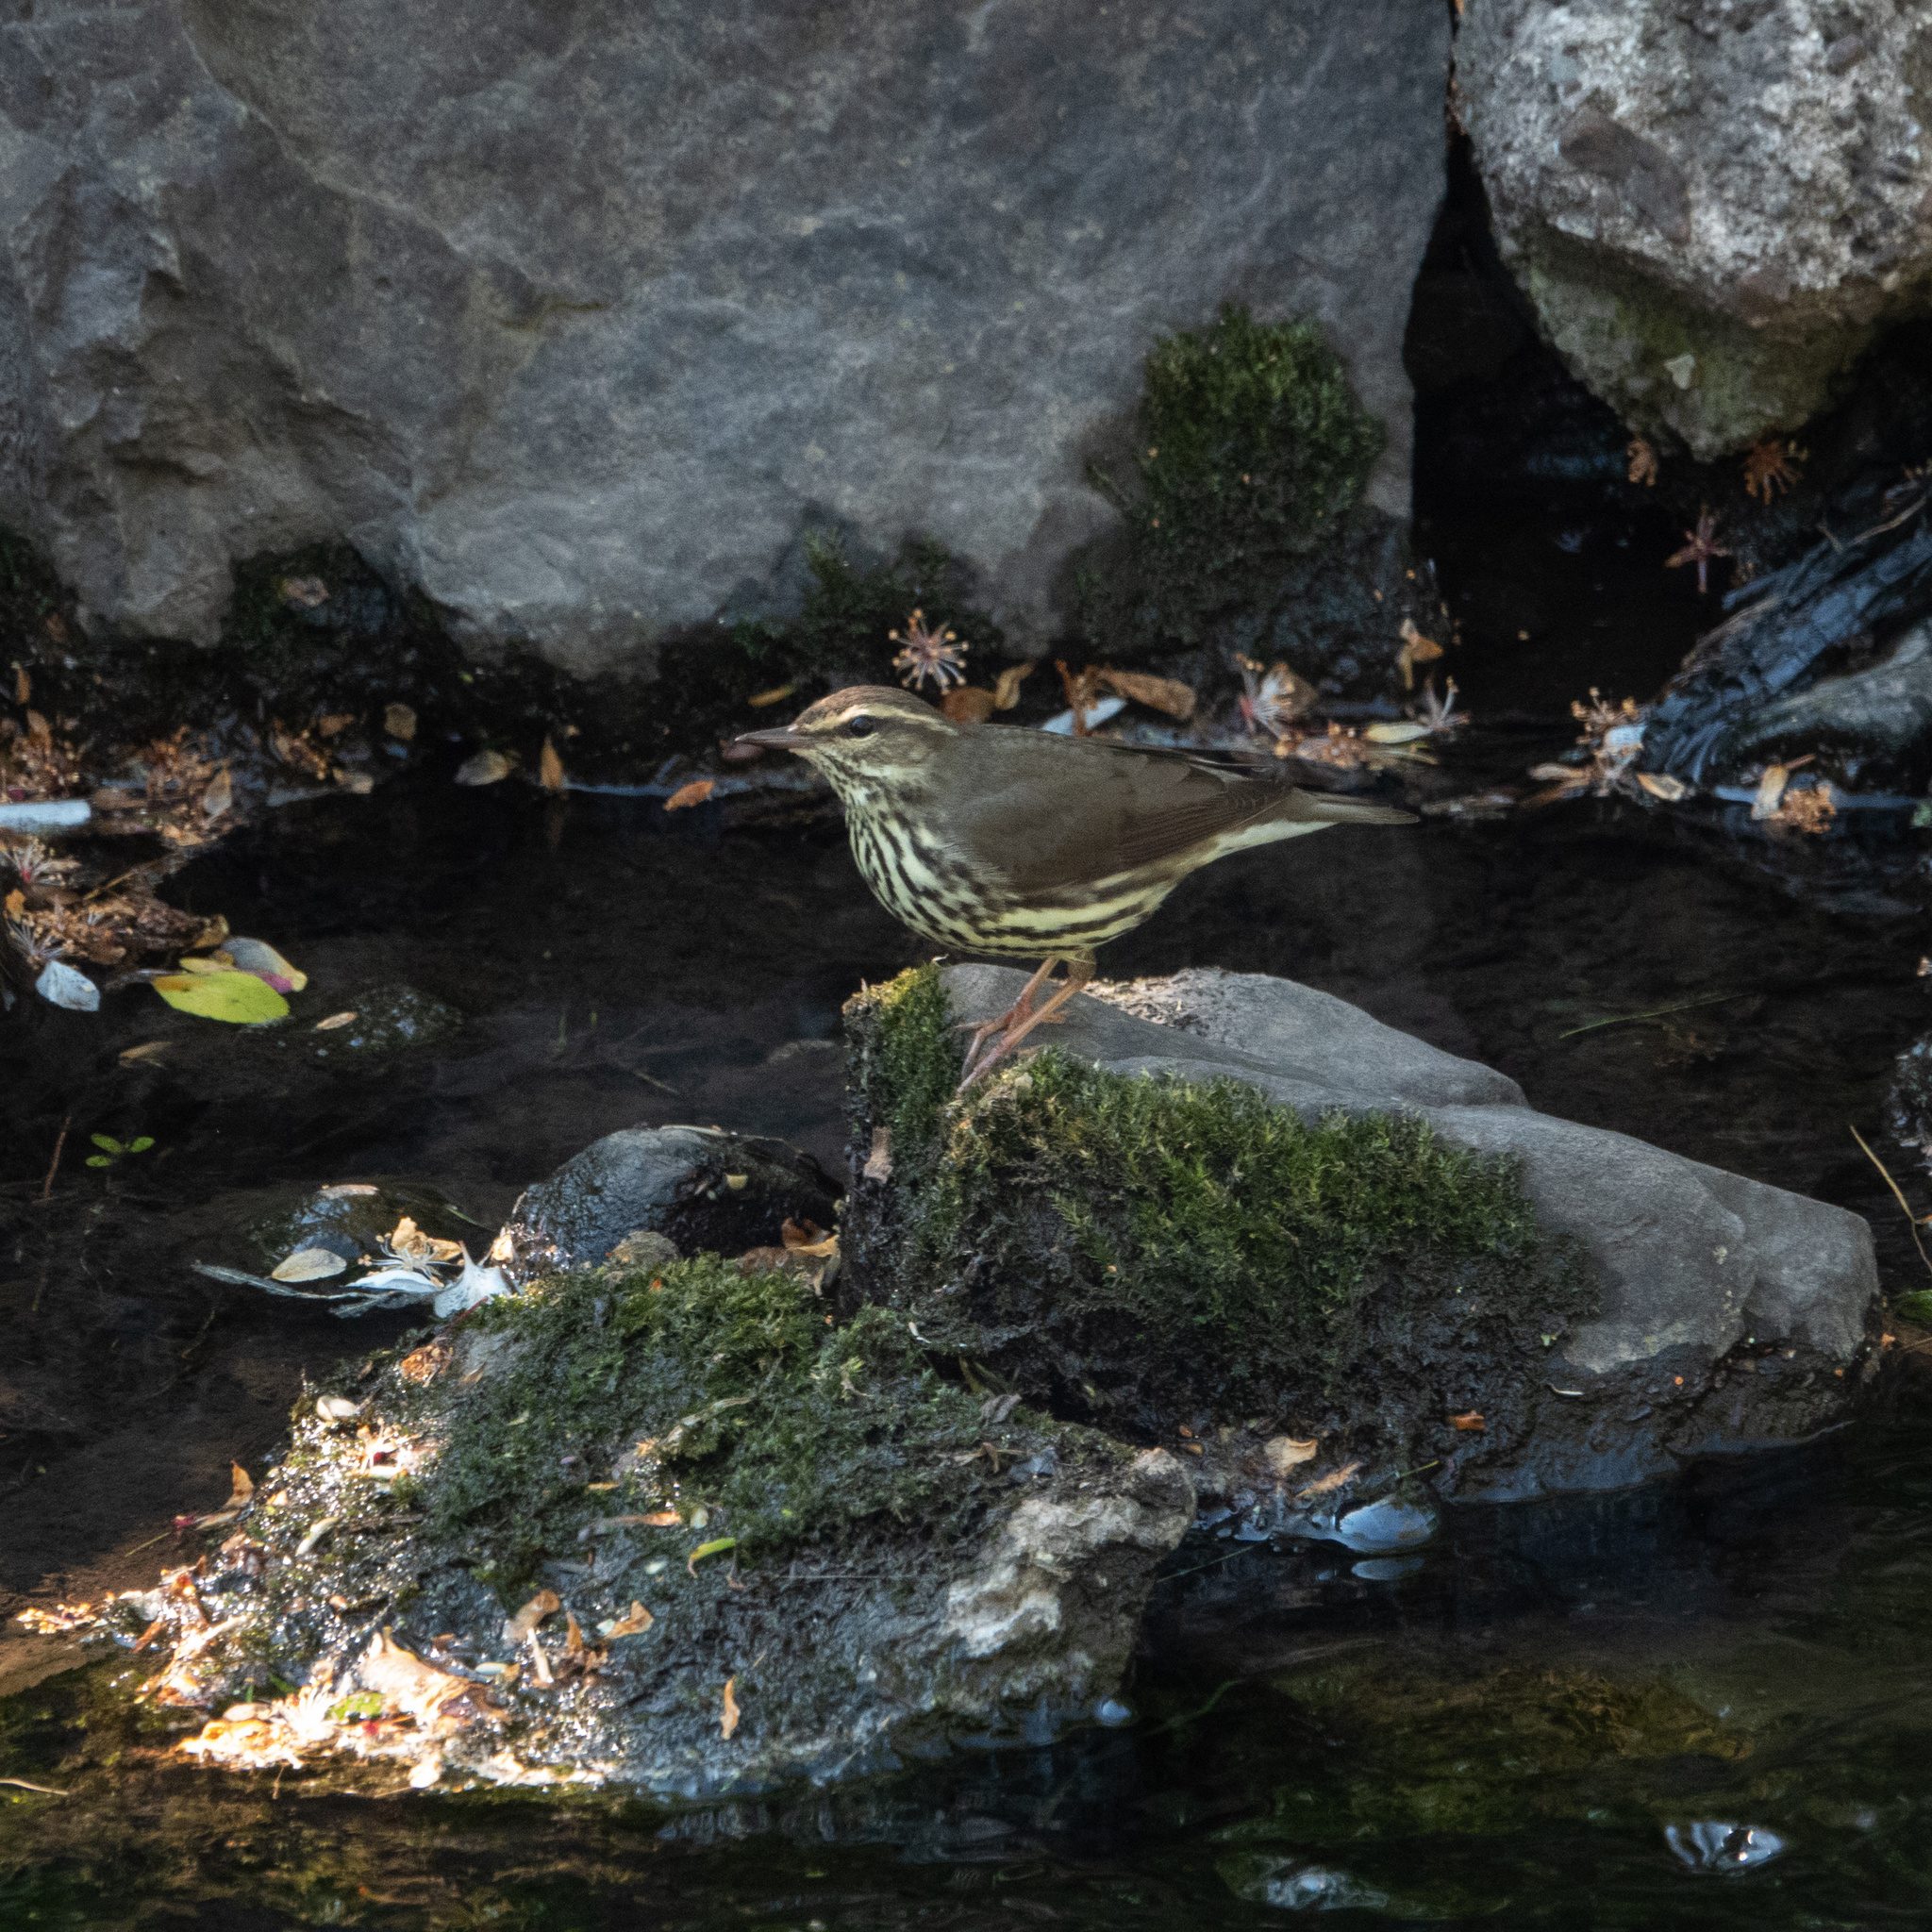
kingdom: Animalia
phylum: Chordata
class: Aves
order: Passeriformes
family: Parulidae
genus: Parkesia
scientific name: Parkesia noveboracensis
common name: Northern waterthrush
